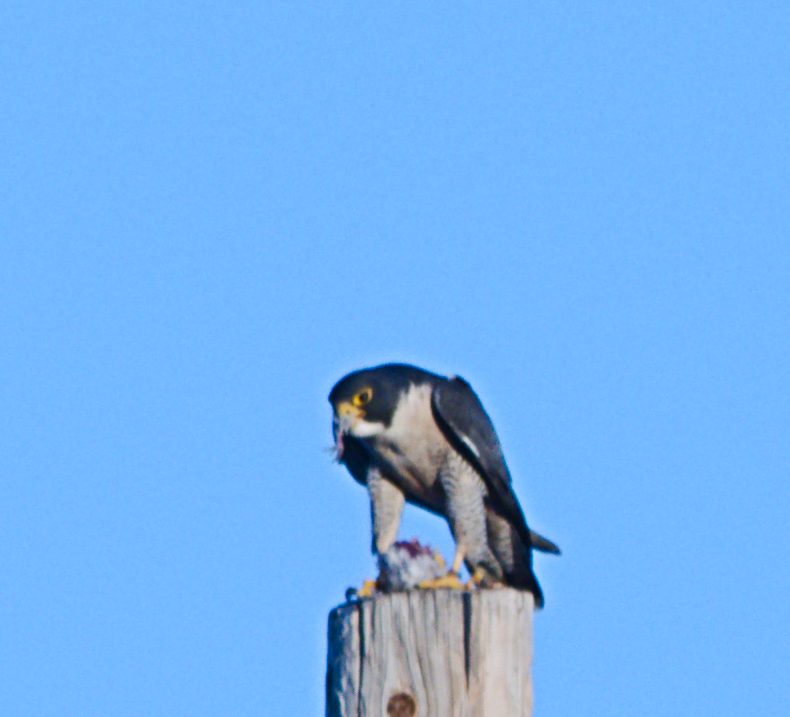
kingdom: Animalia
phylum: Chordata
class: Aves
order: Falconiformes
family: Falconidae
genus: Falco
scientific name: Falco peregrinus
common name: Peregrine falcon
